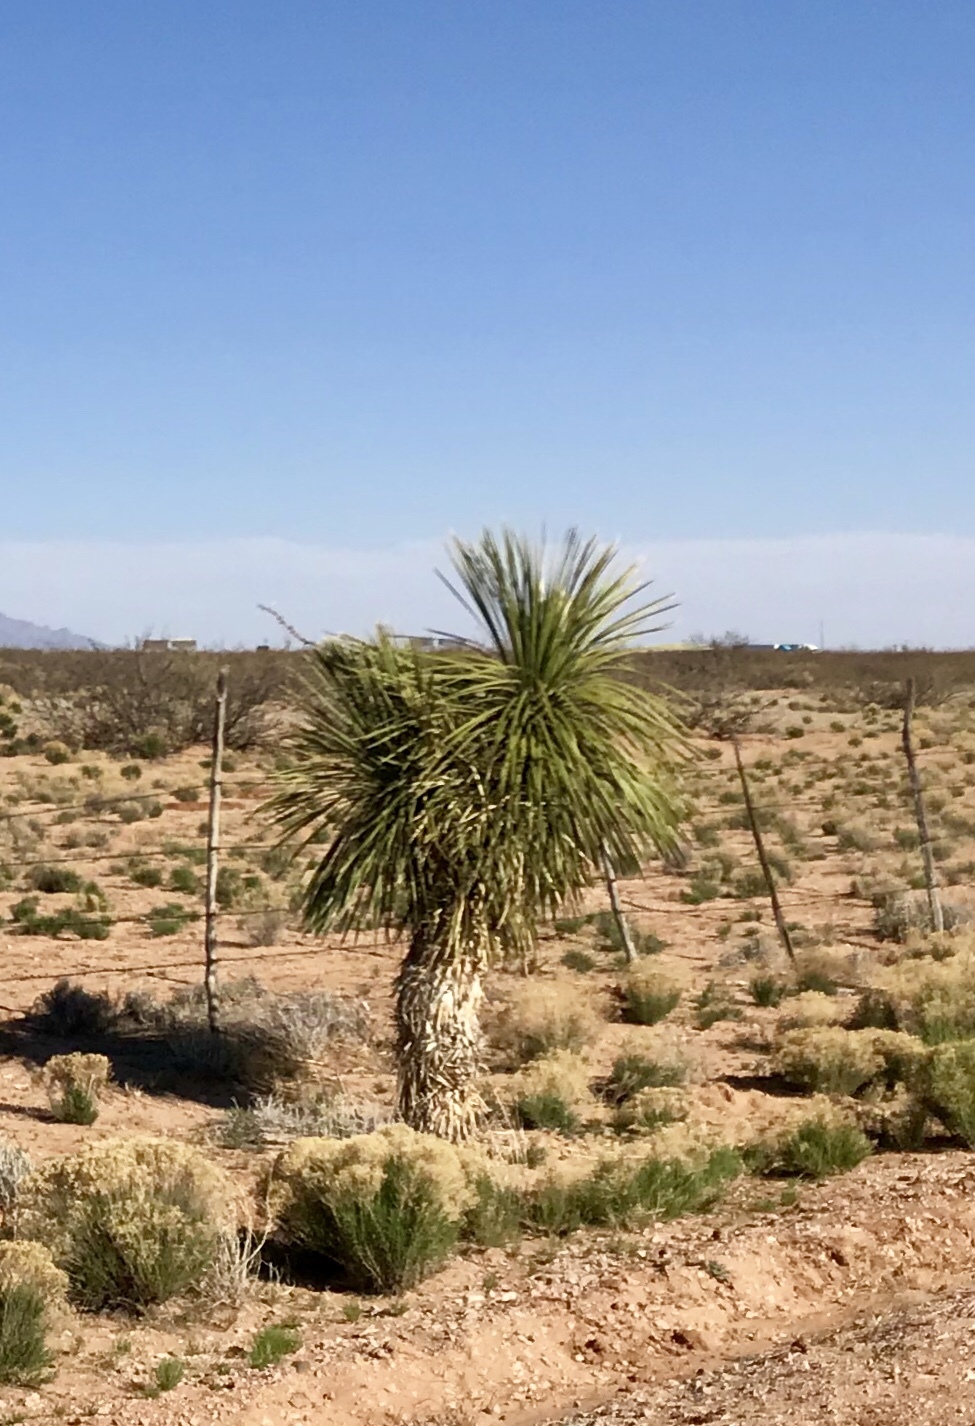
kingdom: Plantae
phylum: Tracheophyta
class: Liliopsida
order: Asparagales
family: Asparagaceae
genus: Yucca
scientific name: Yucca elata
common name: Palmella
